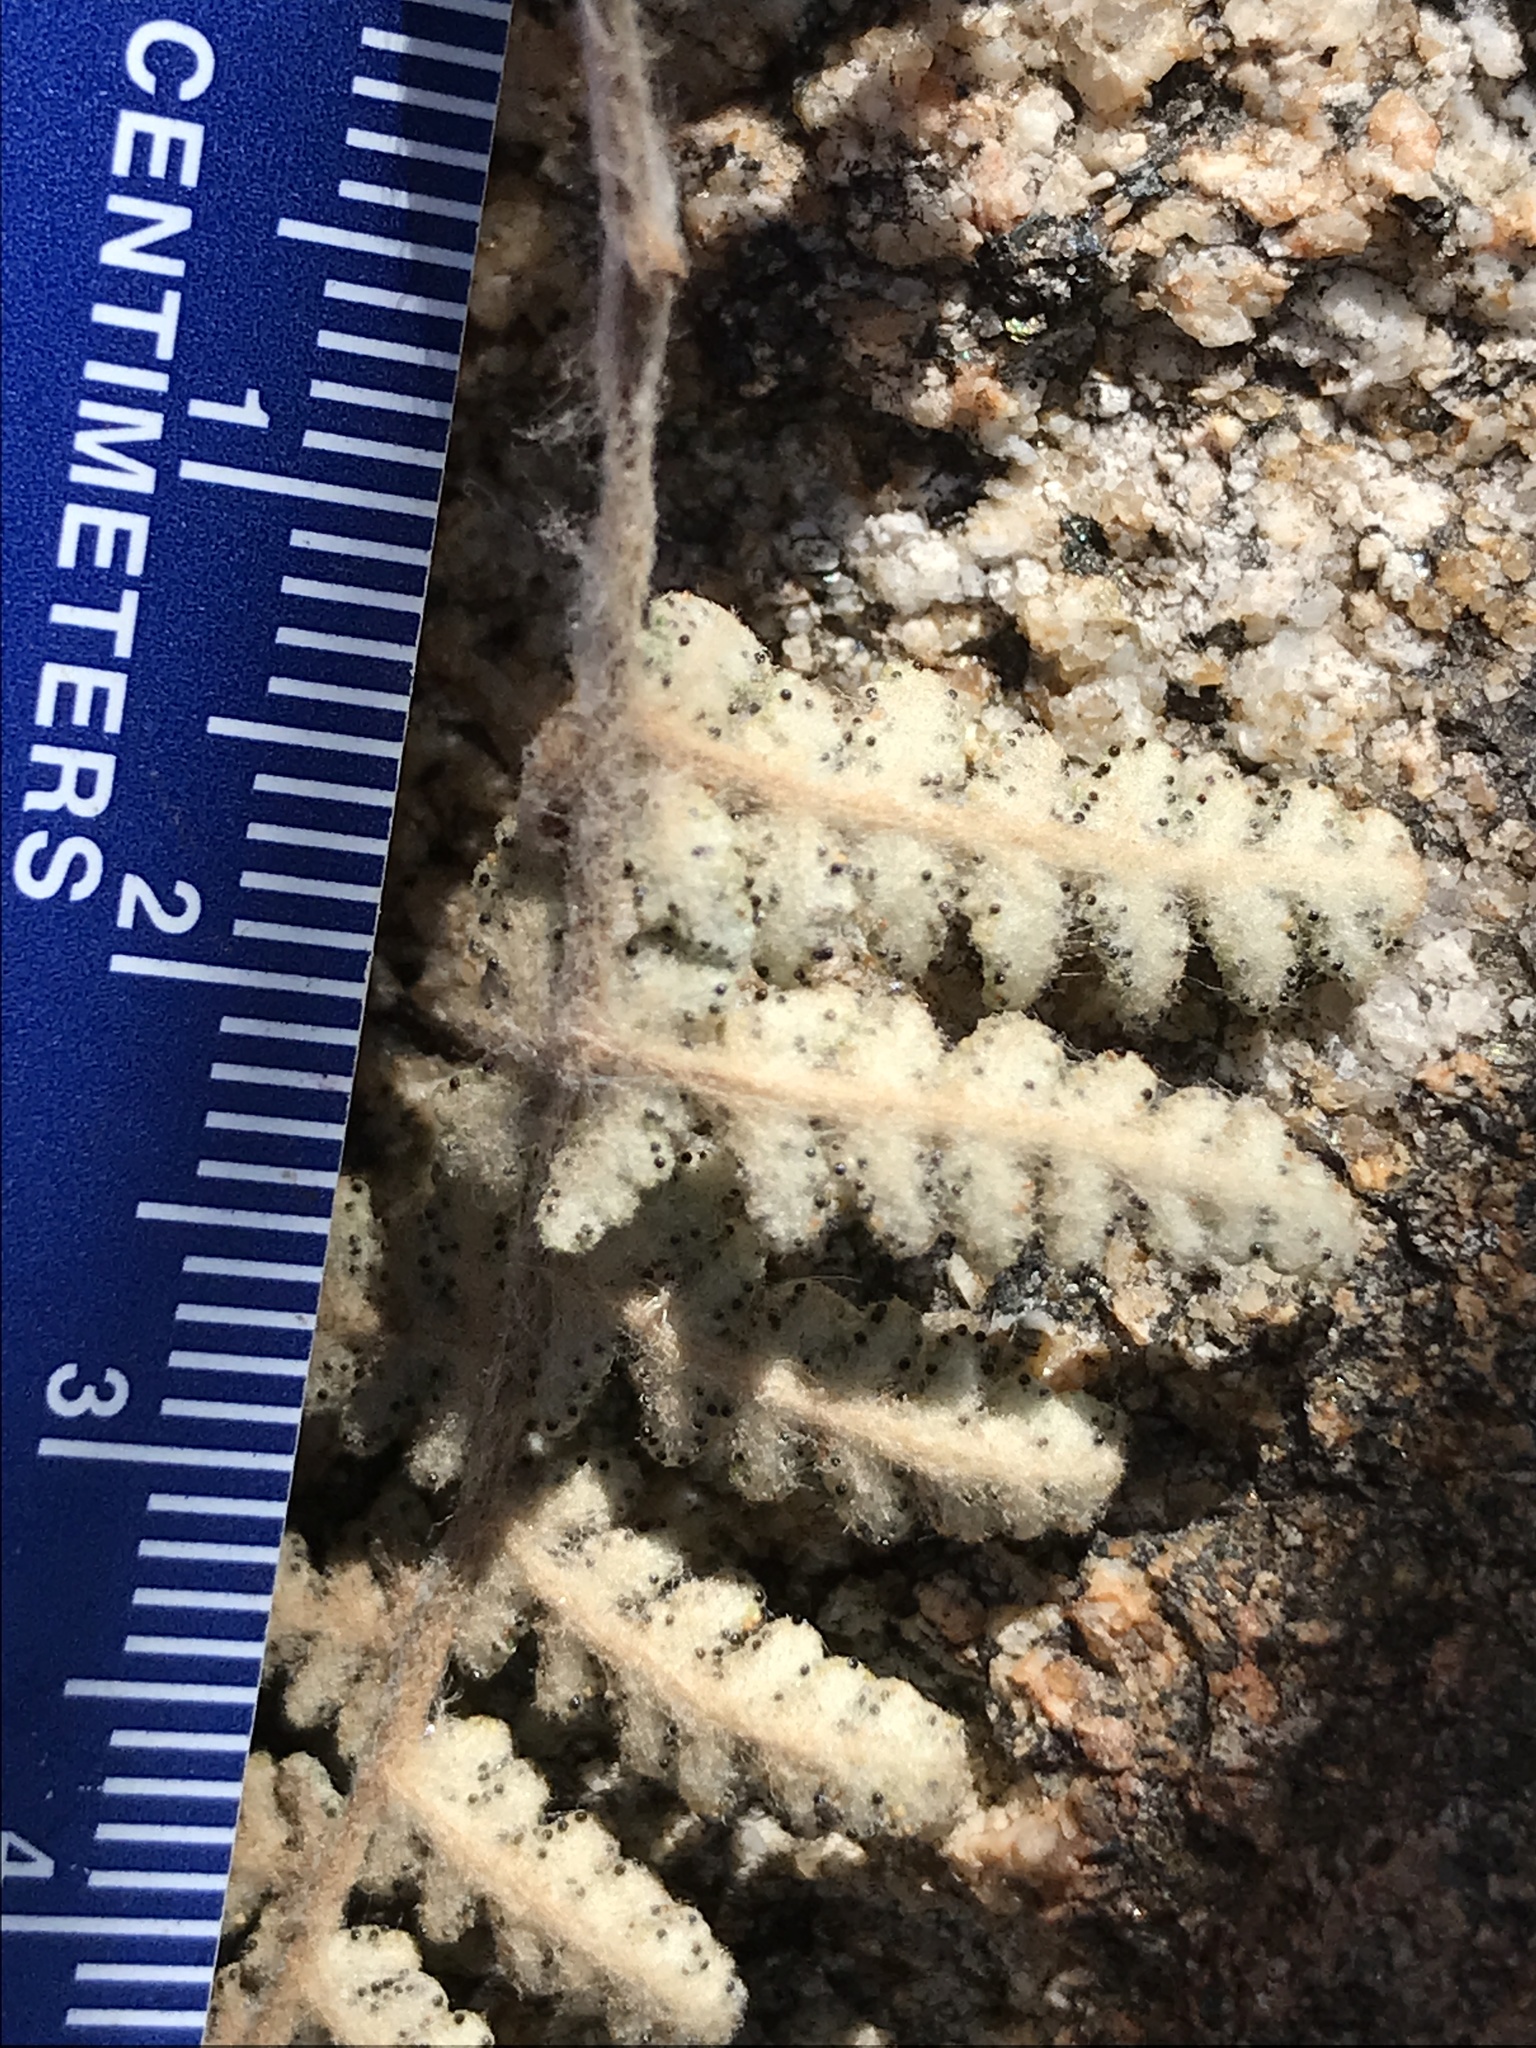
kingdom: Plantae
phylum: Tracheophyta
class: Polypodiopsida
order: Polypodiales
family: Pteridaceae
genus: Myriopteris
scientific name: Myriopteris newberryi
